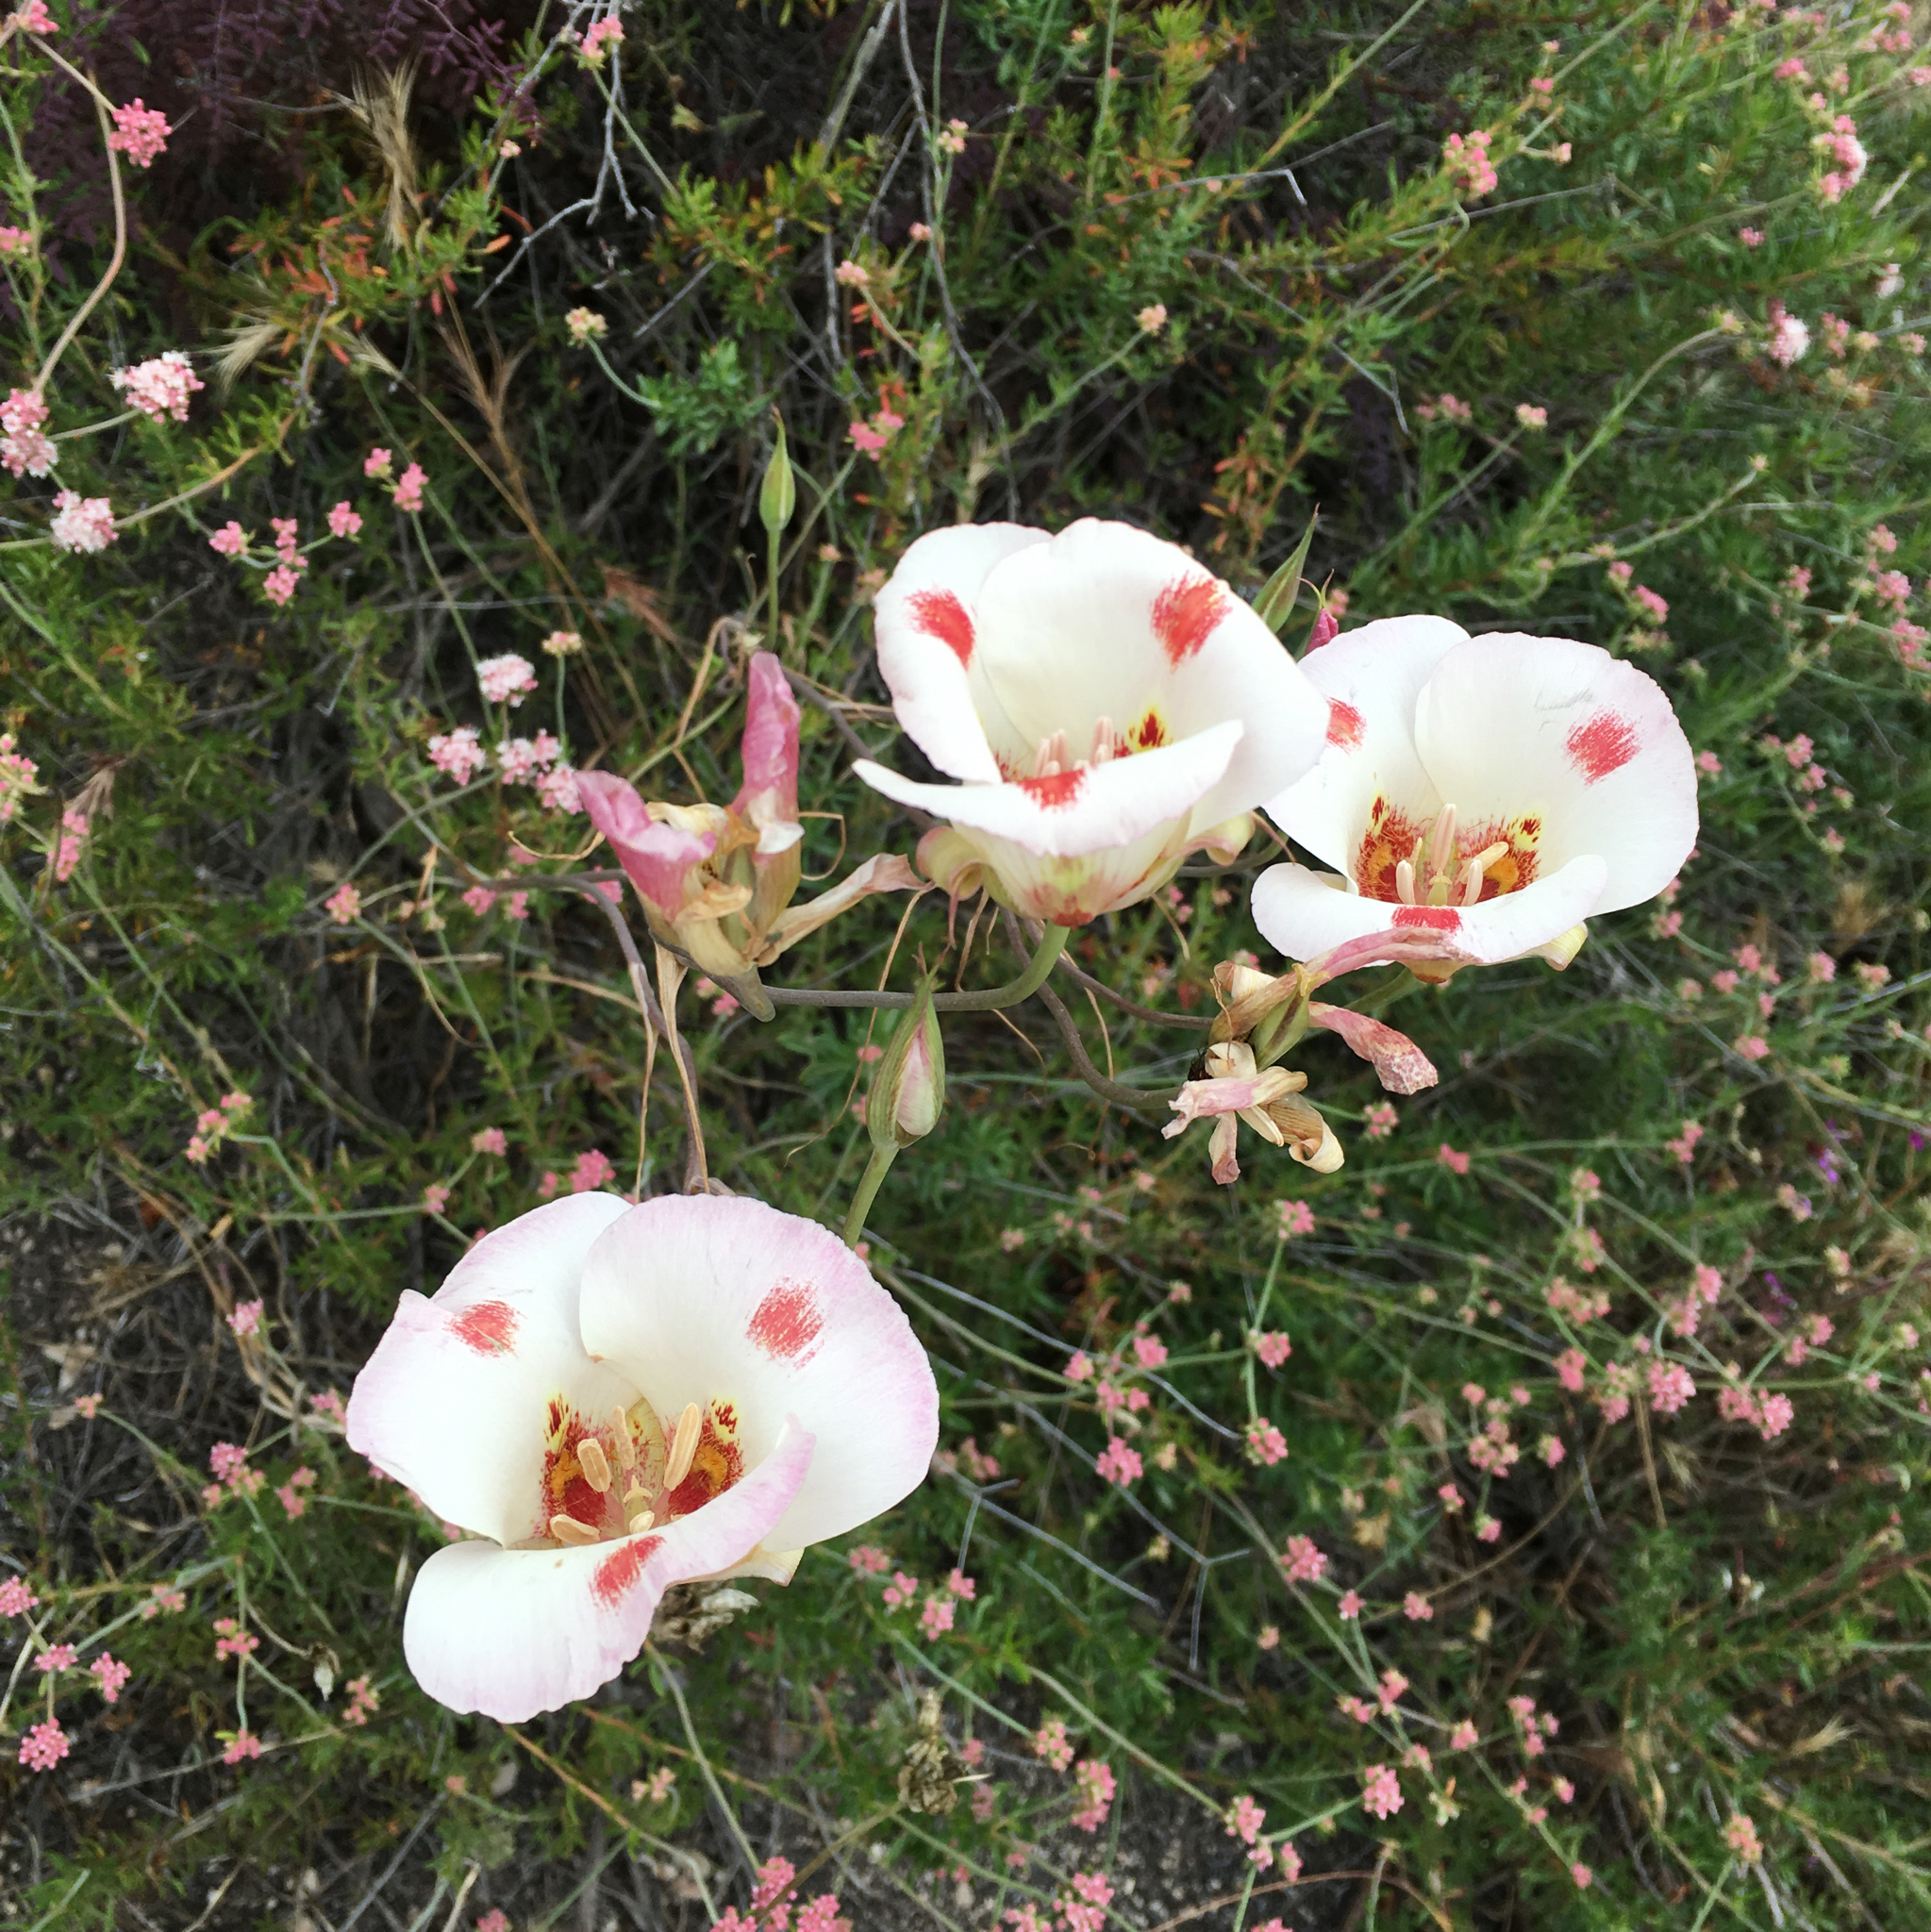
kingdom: Plantae
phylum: Tracheophyta
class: Liliopsida
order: Liliales
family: Liliaceae
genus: Calochortus
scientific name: Calochortus venustus
